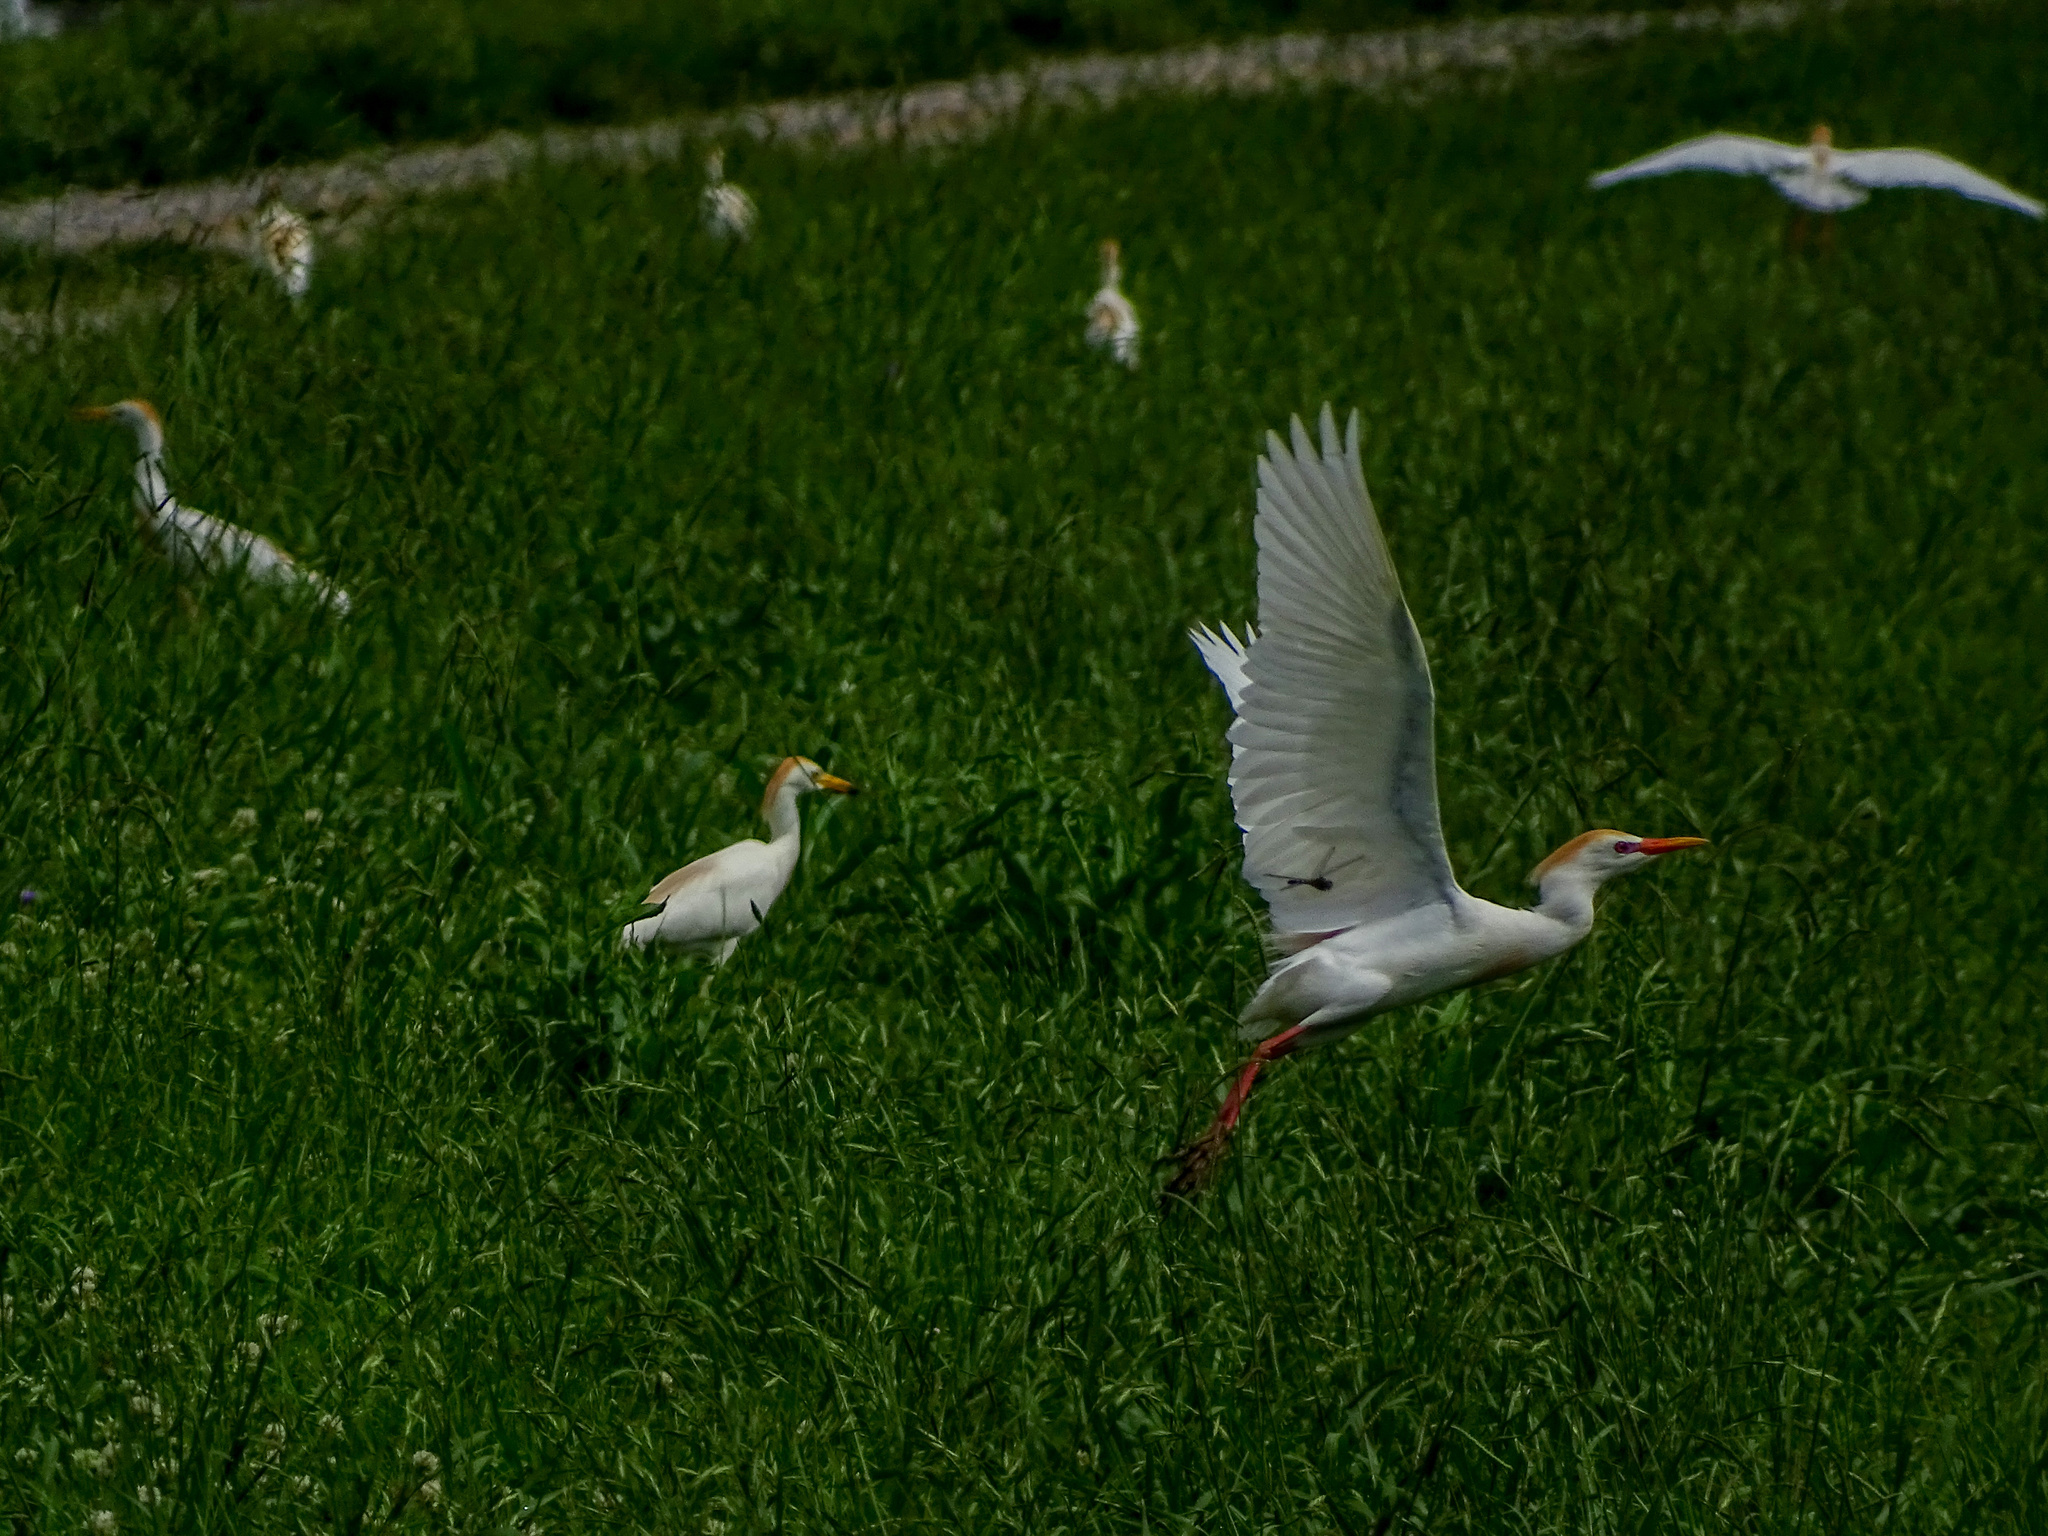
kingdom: Animalia
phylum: Chordata
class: Aves
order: Pelecaniformes
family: Ardeidae
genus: Bubulcus
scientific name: Bubulcus ibis
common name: Cattle egret
